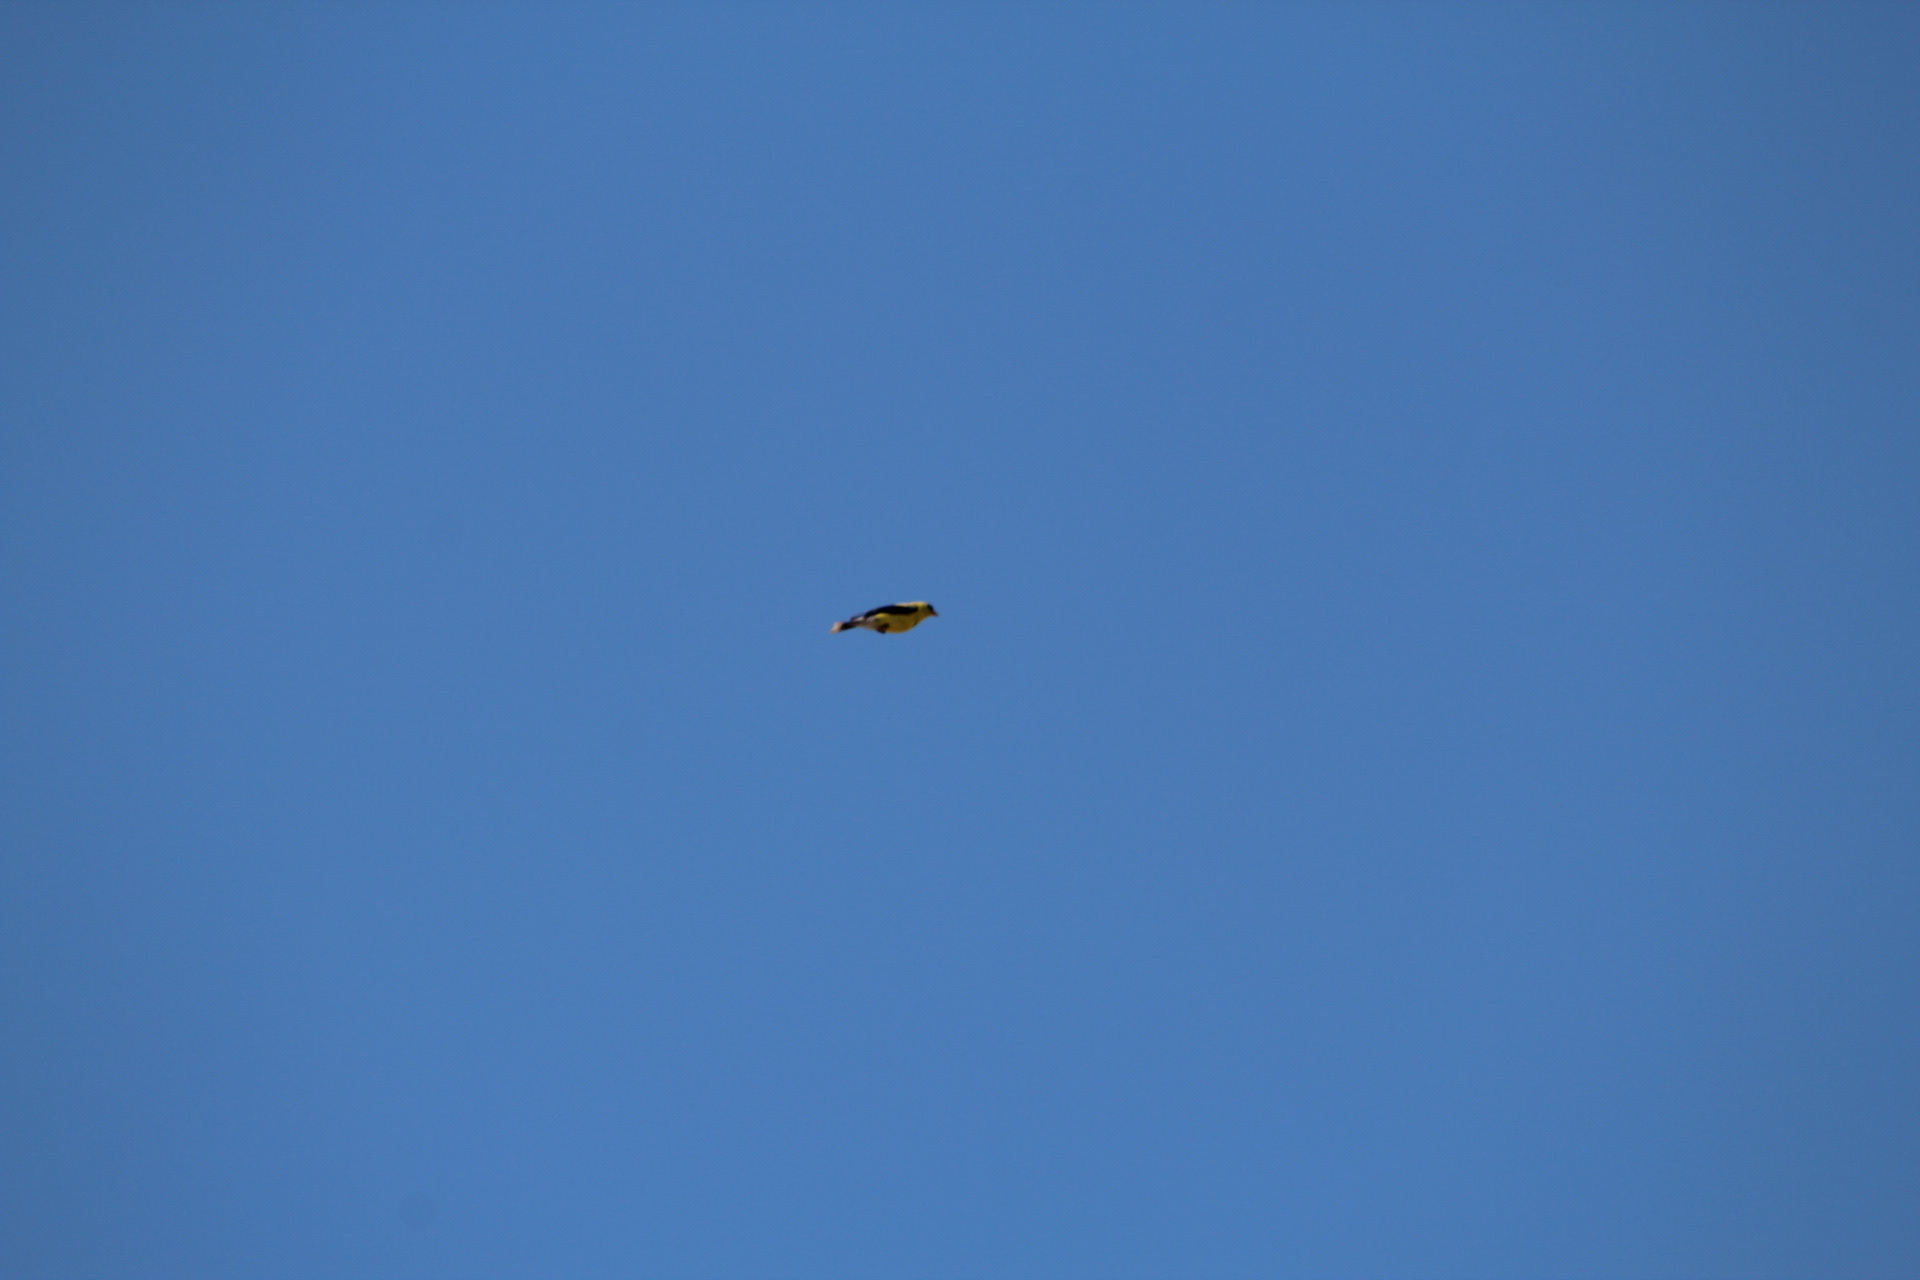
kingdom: Animalia
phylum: Chordata
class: Aves
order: Passeriformes
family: Fringillidae
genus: Spinus
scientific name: Spinus tristis
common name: American goldfinch
